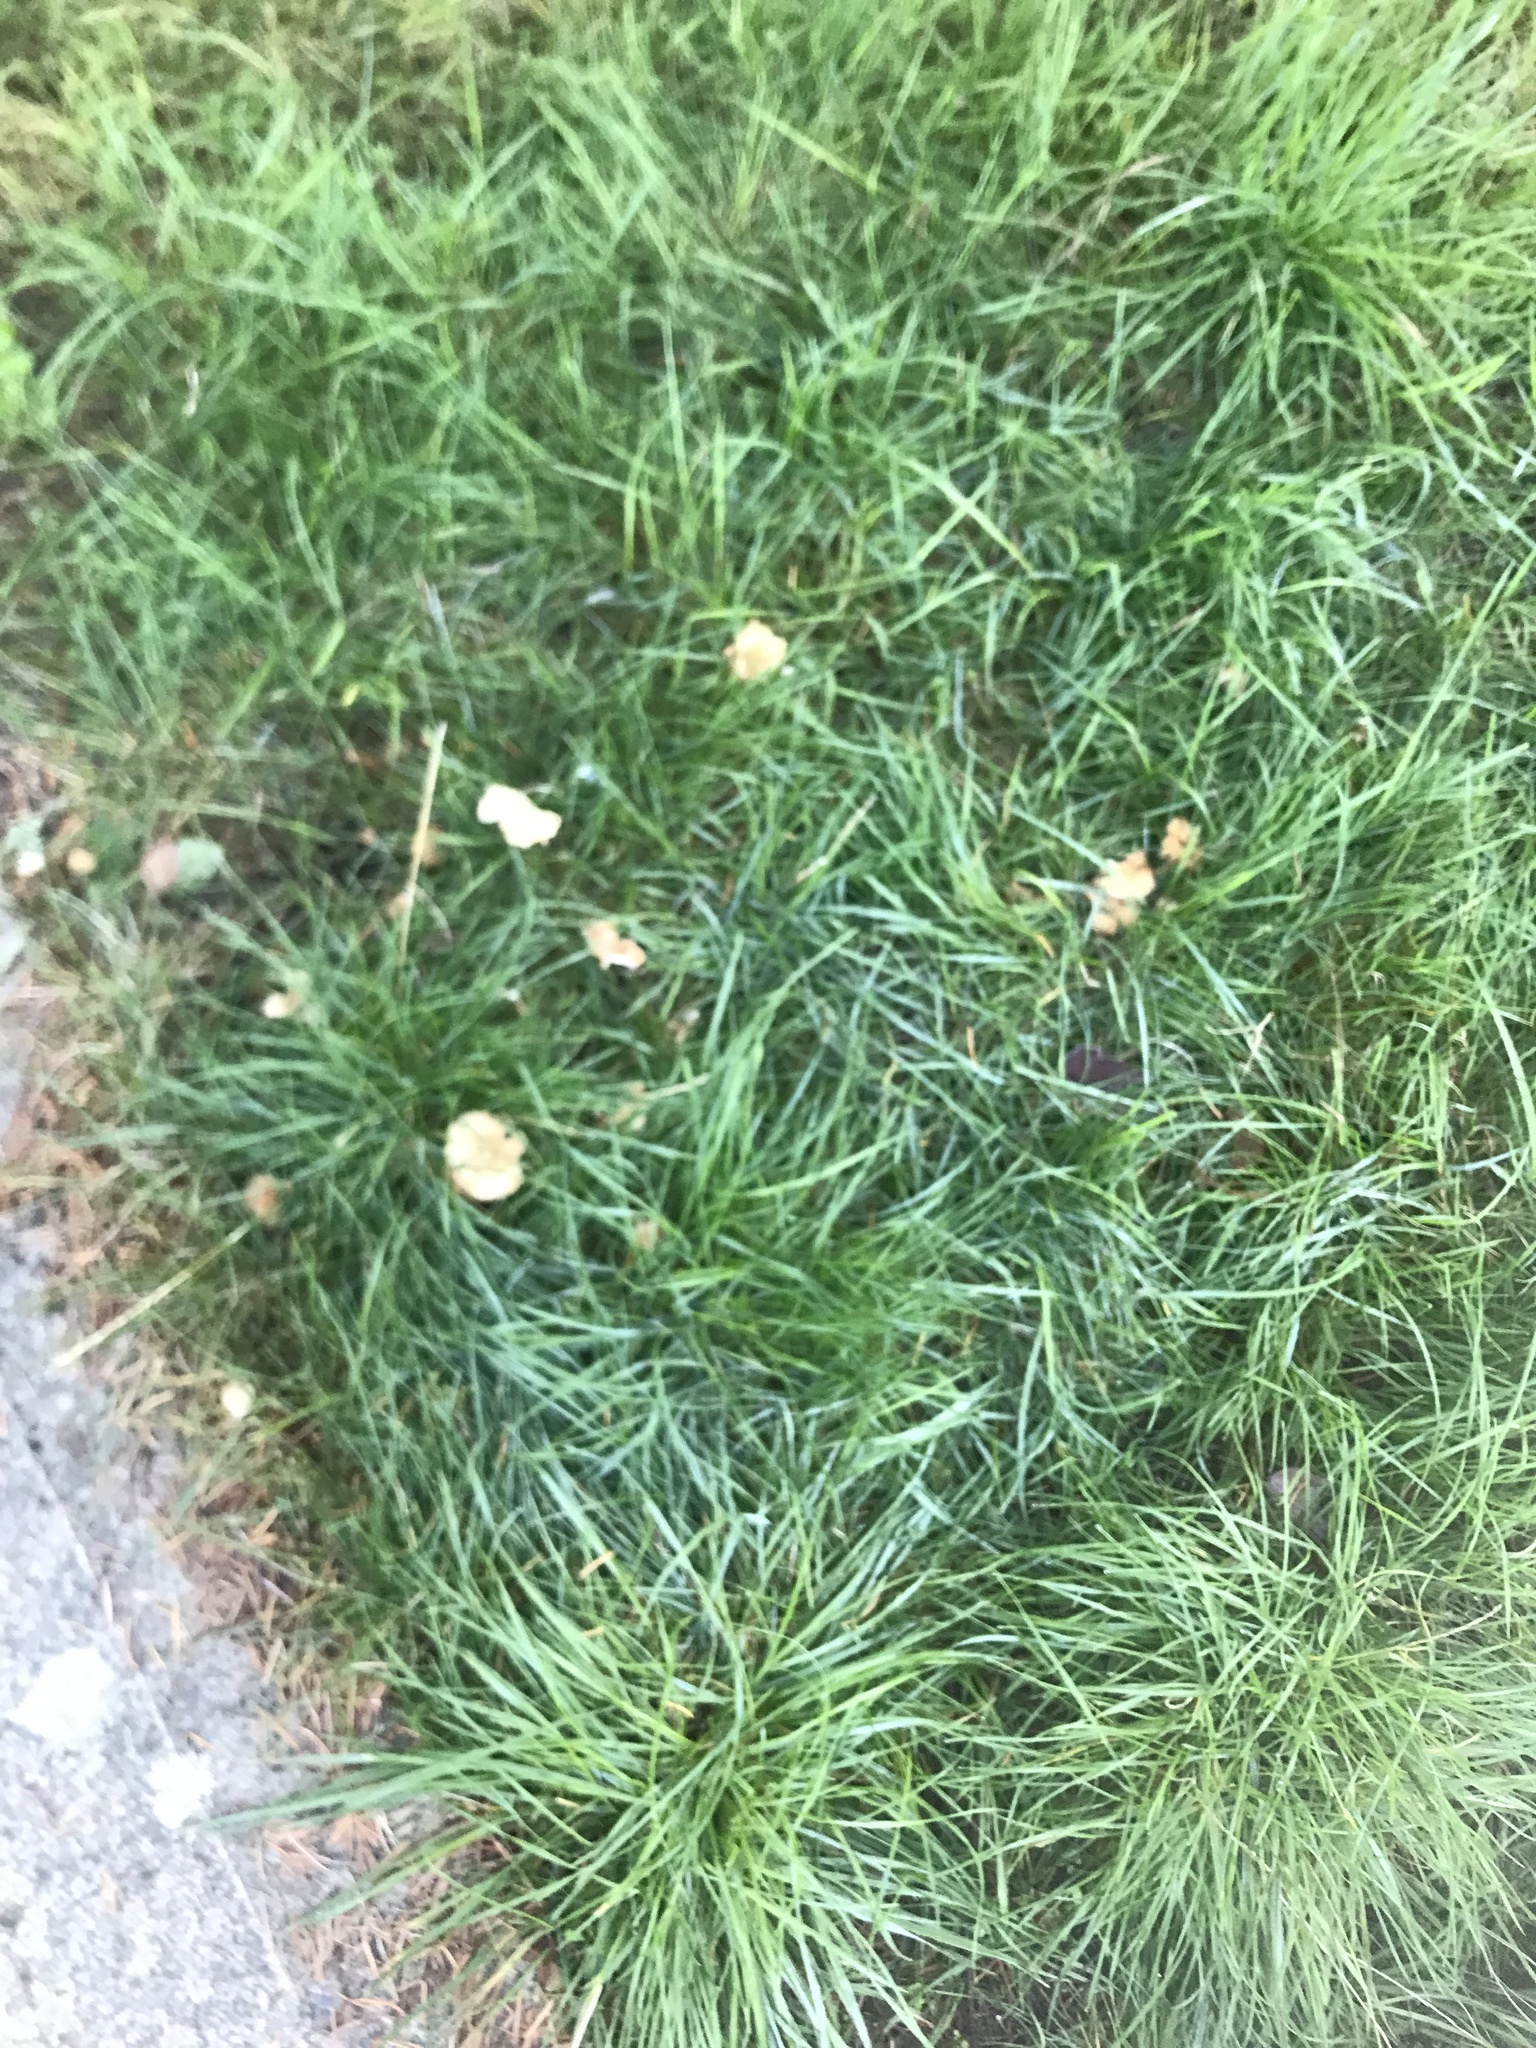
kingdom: Fungi
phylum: Basidiomycota
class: Agaricomycetes
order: Agaricales
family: Marasmiaceae
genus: Marasmius
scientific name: Marasmius oreades
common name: Fairy ring champignon
